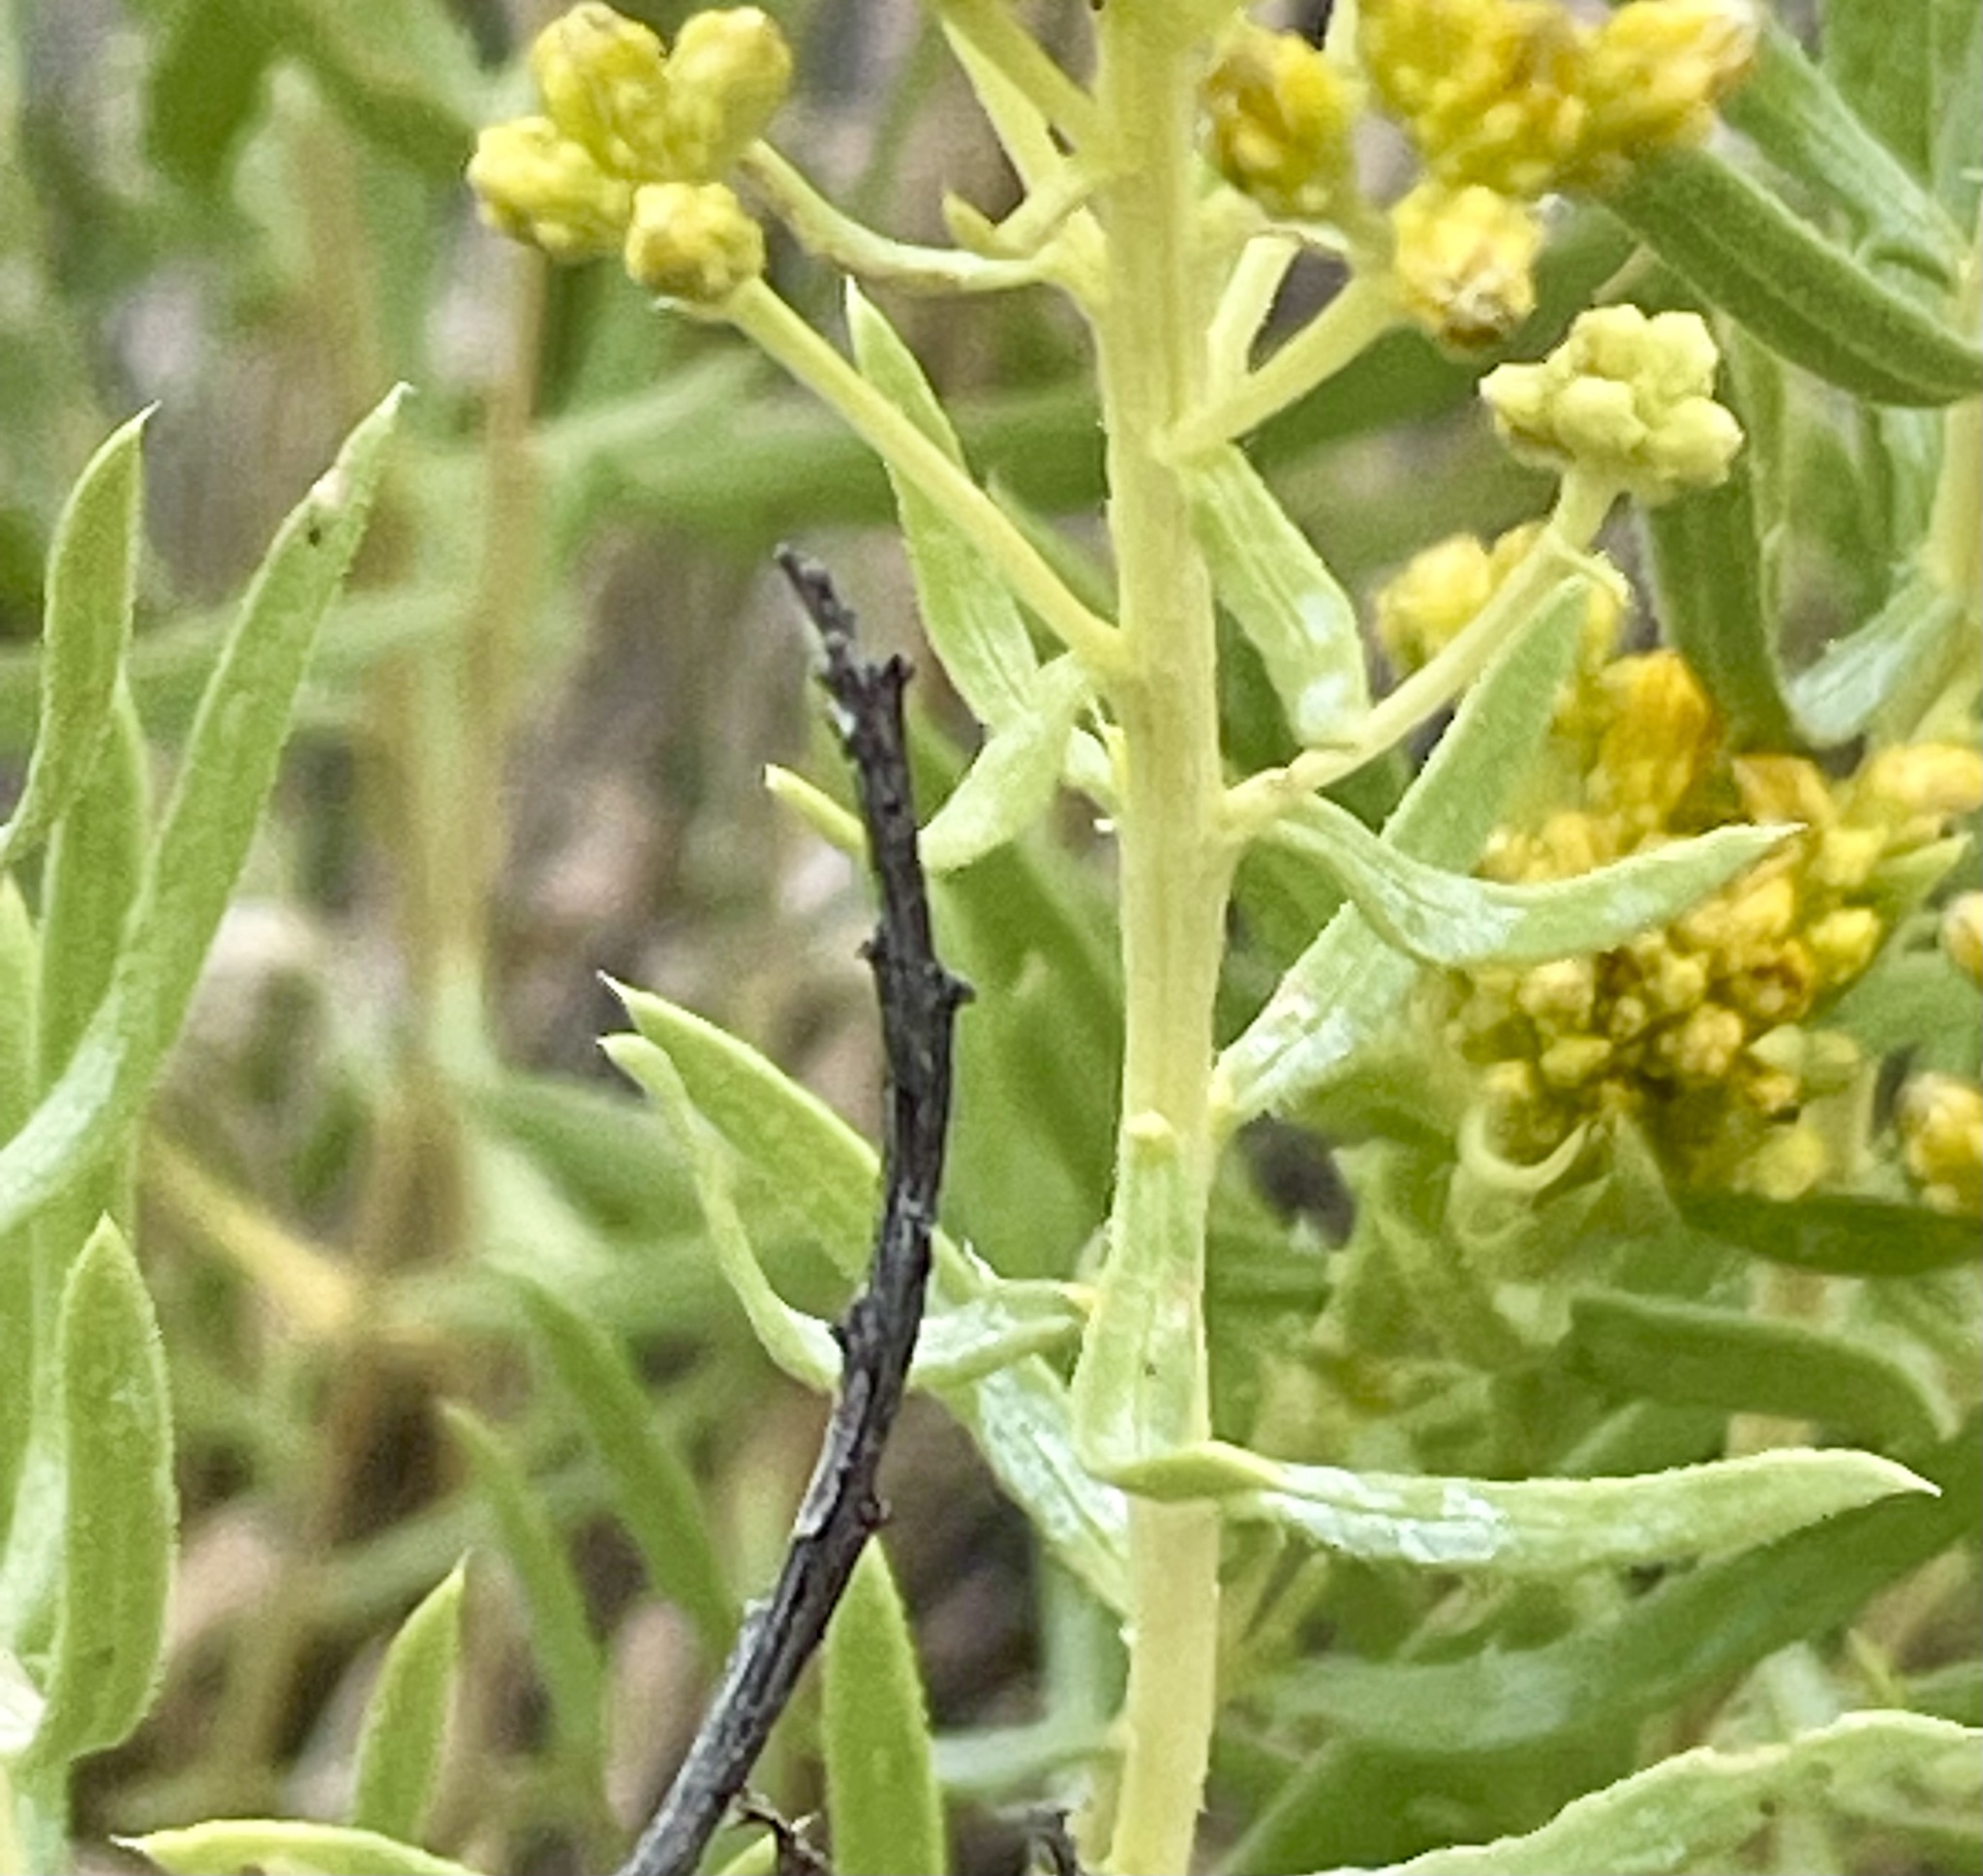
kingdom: Plantae
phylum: Tracheophyta
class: Magnoliopsida
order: Asterales
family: Asteraceae
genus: Isocoma
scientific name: Isocoma pluriflora
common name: Southern jimmyweed
